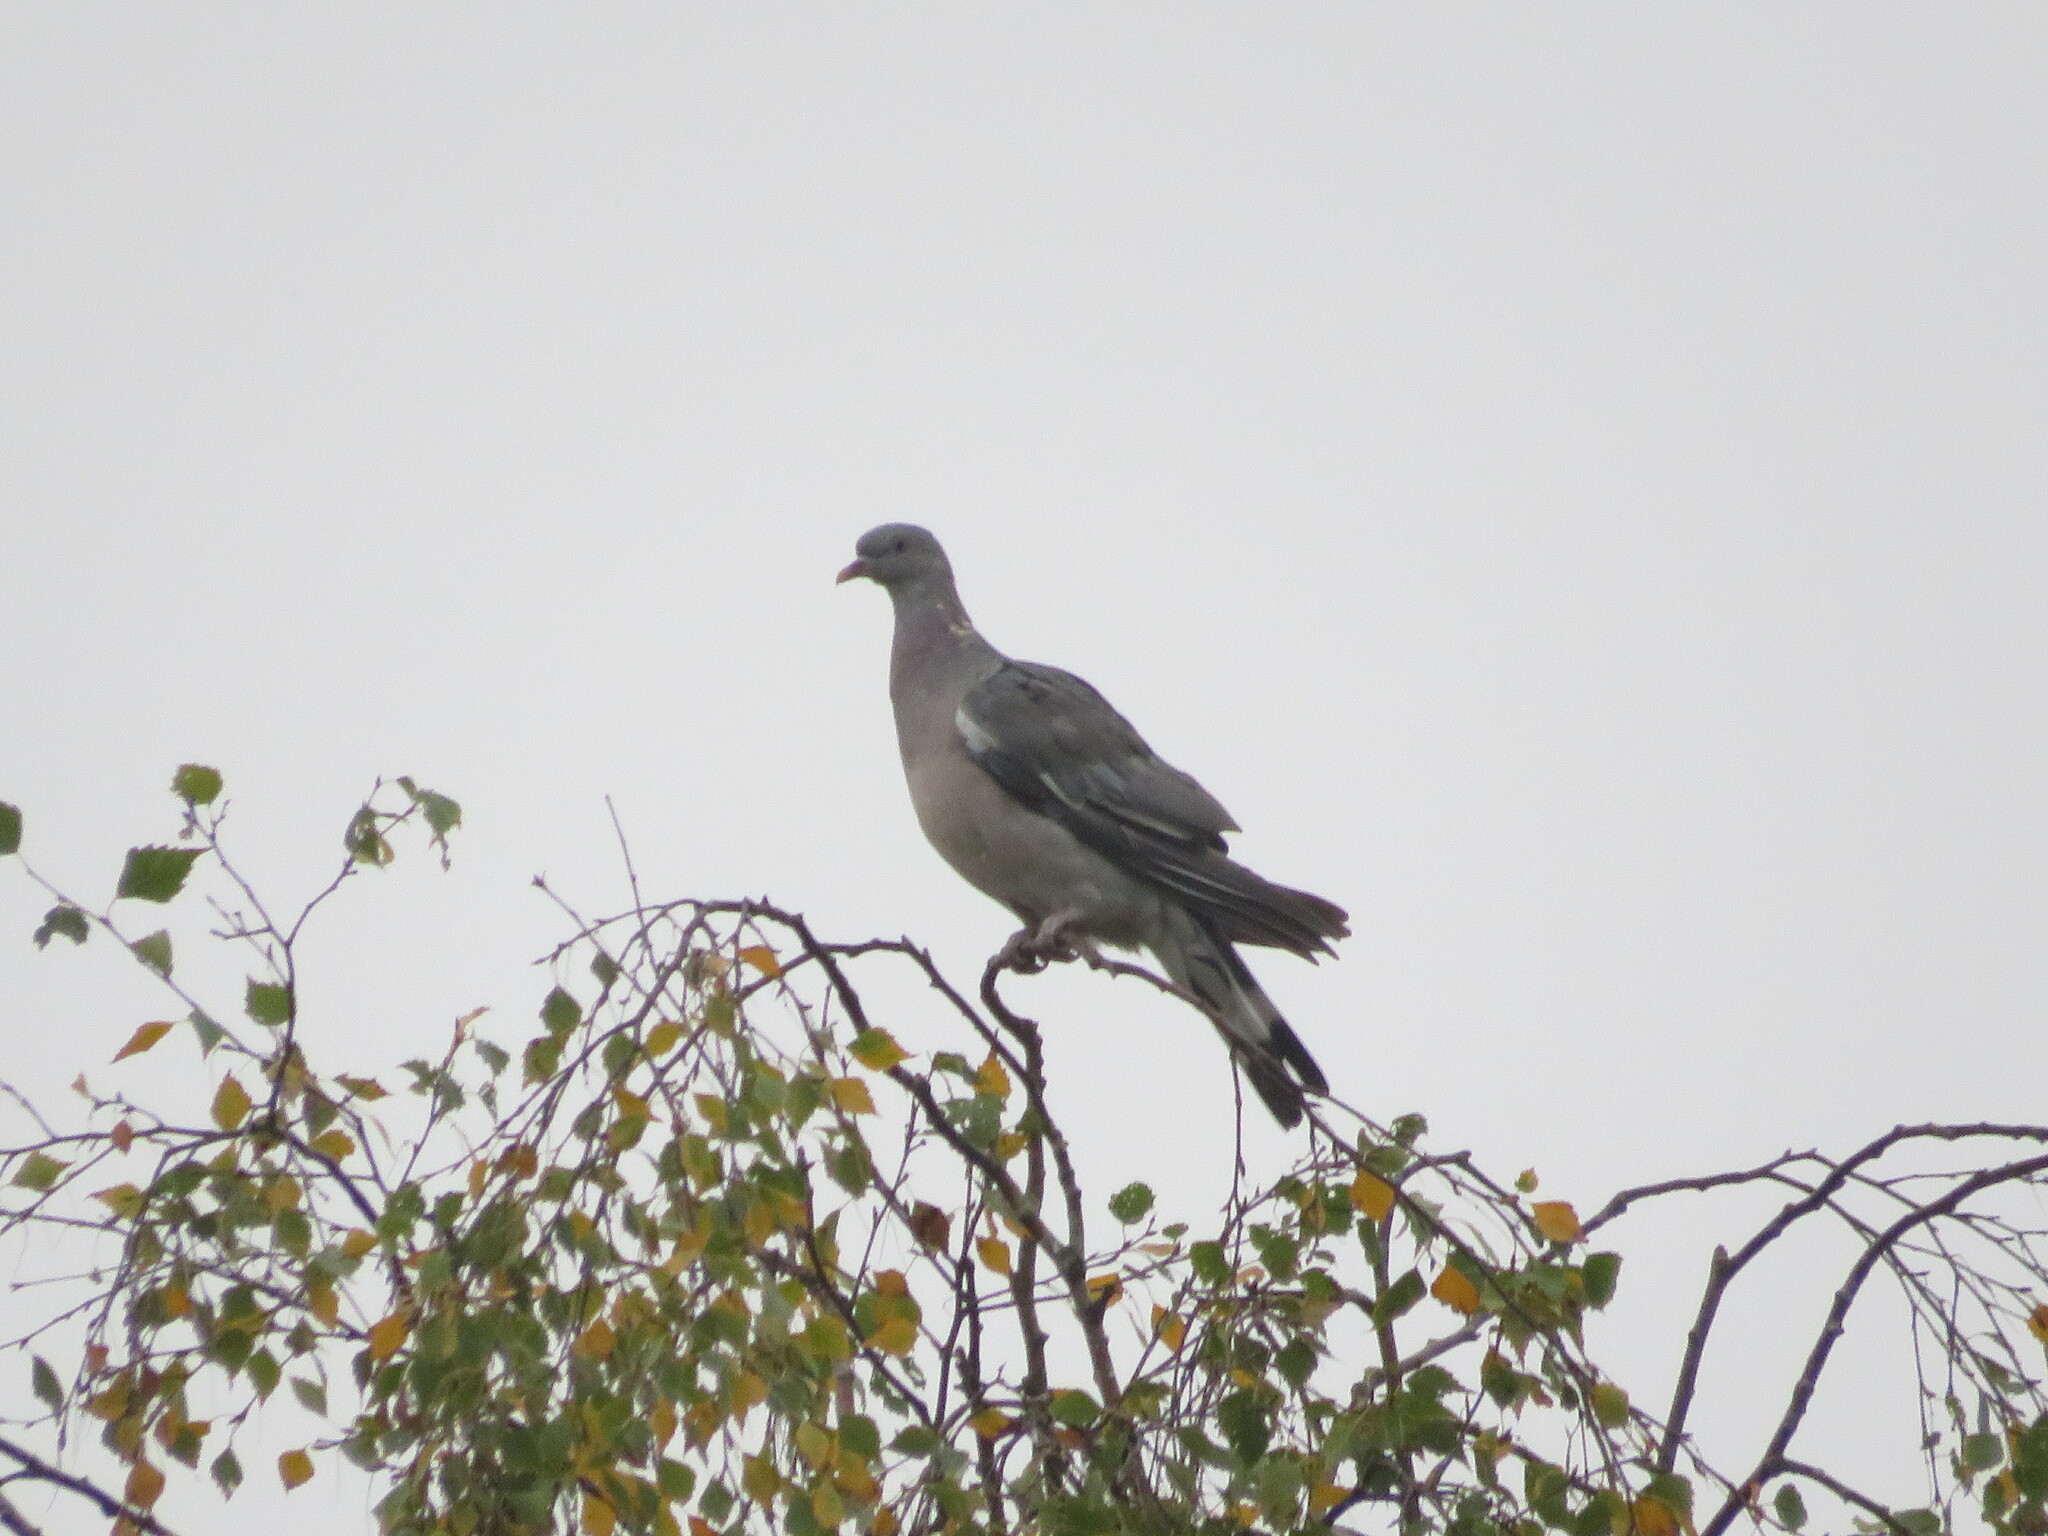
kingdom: Animalia
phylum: Chordata
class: Aves
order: Columbiformes
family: Columbidae
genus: Columba
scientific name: Columba palumbus
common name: Common wood pigeon
